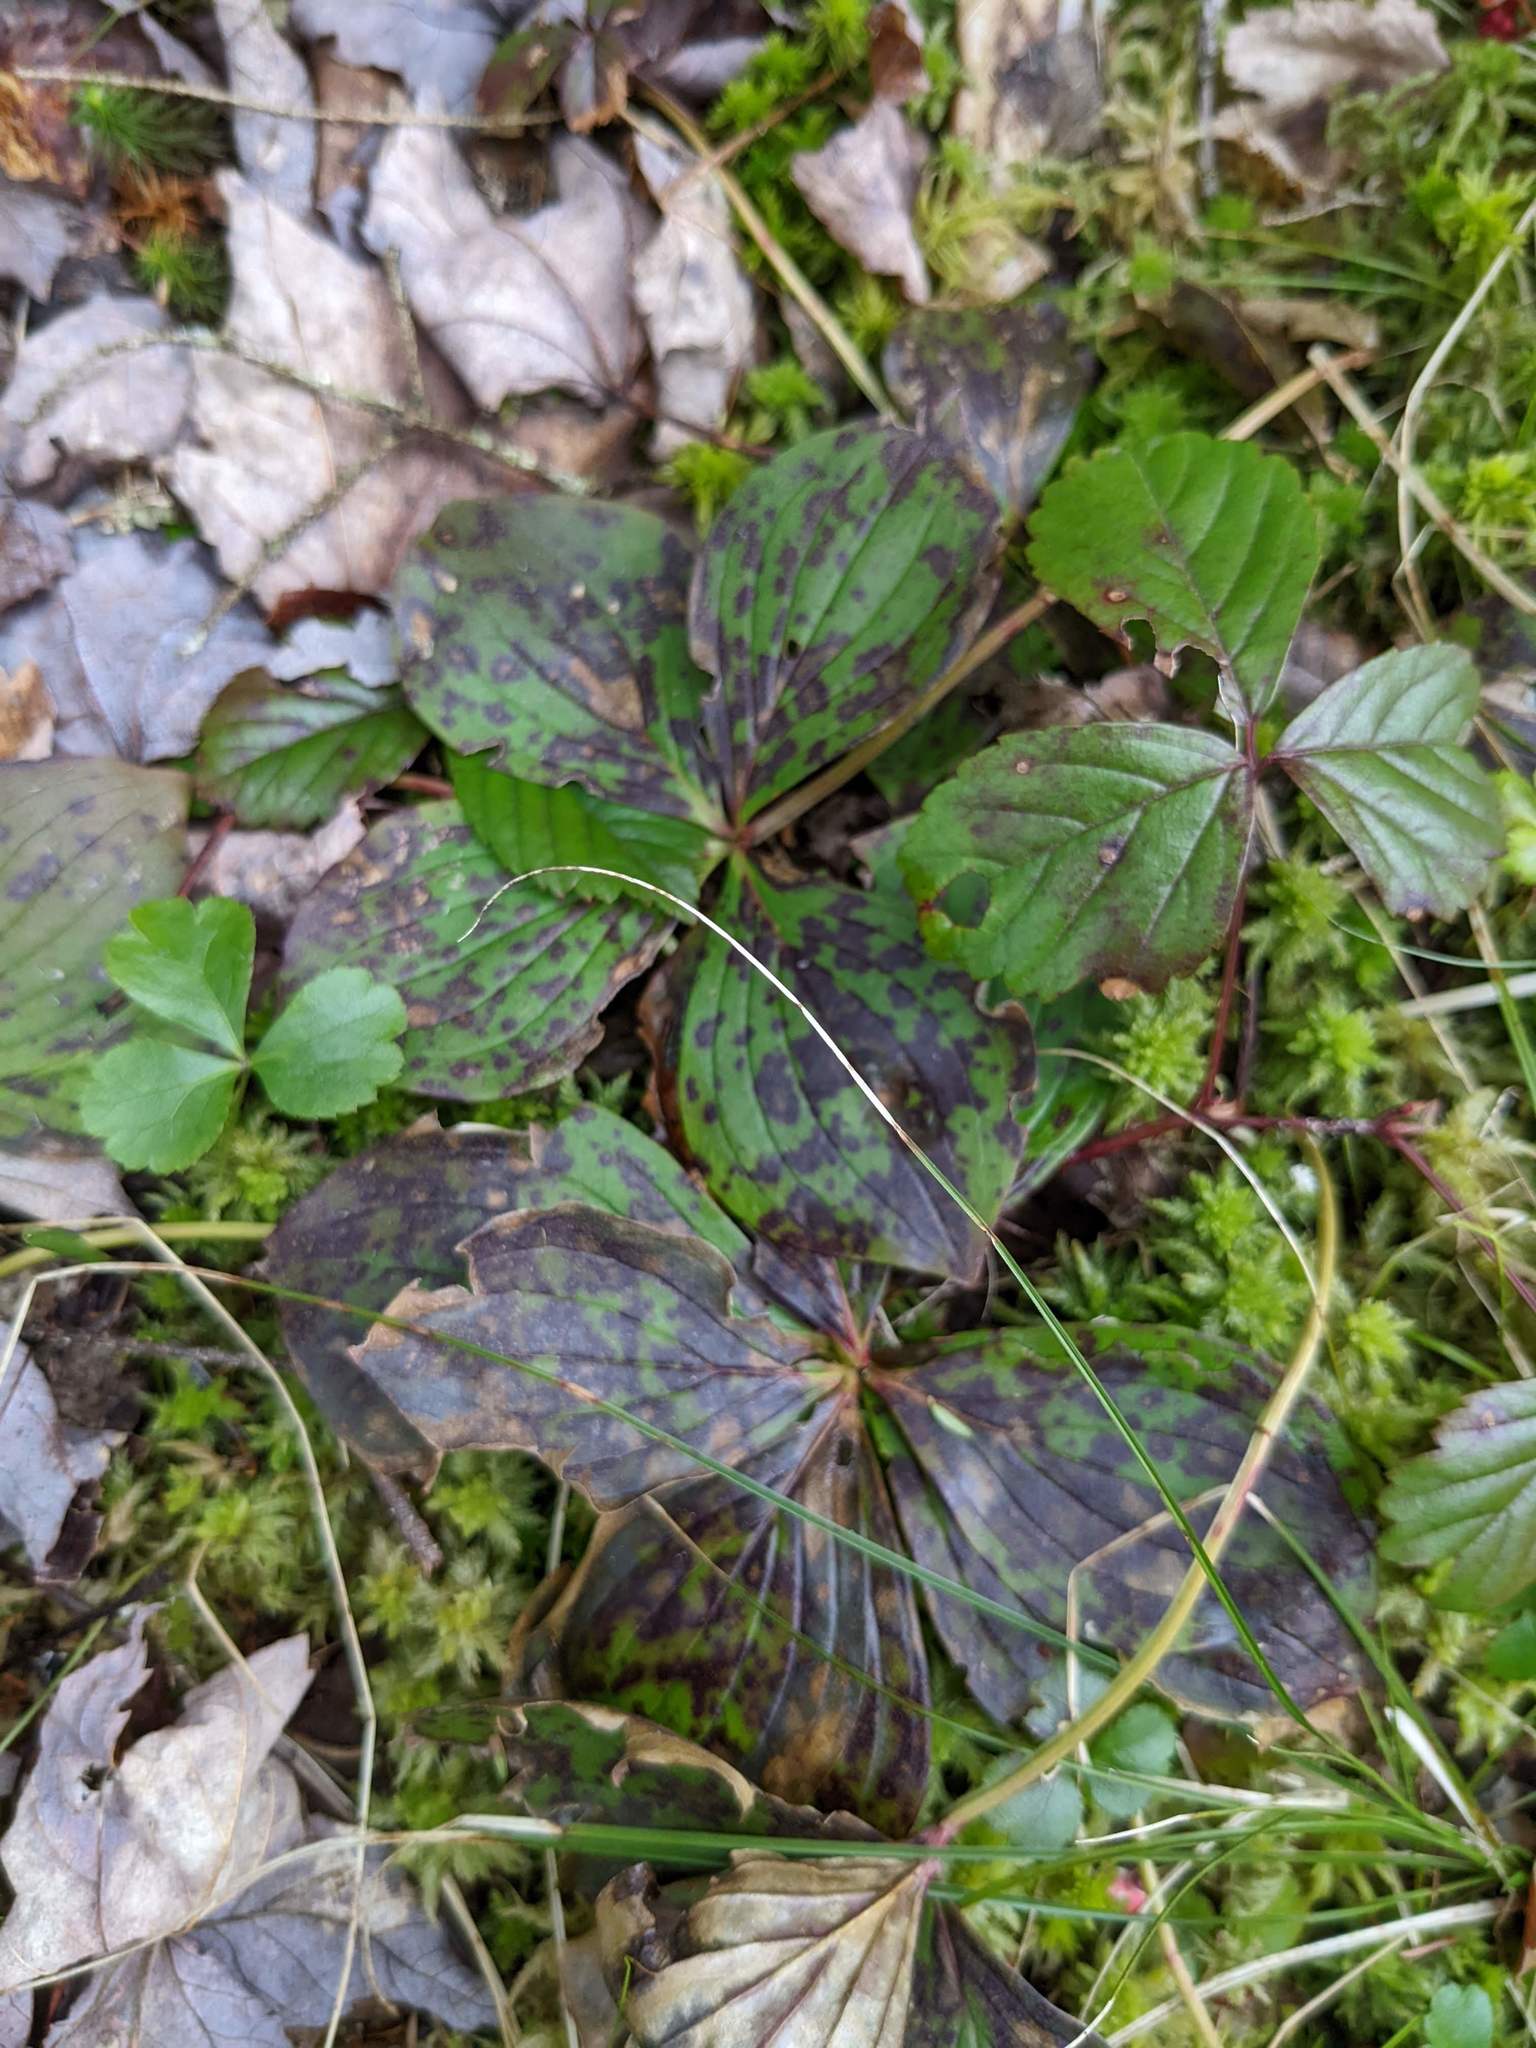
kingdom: Plantae
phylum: Tracheophyta
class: Magnoliopsida
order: Ranunculales
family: Ranunculaceae
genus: Coptis
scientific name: Coptis trifolia
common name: Canker-root
